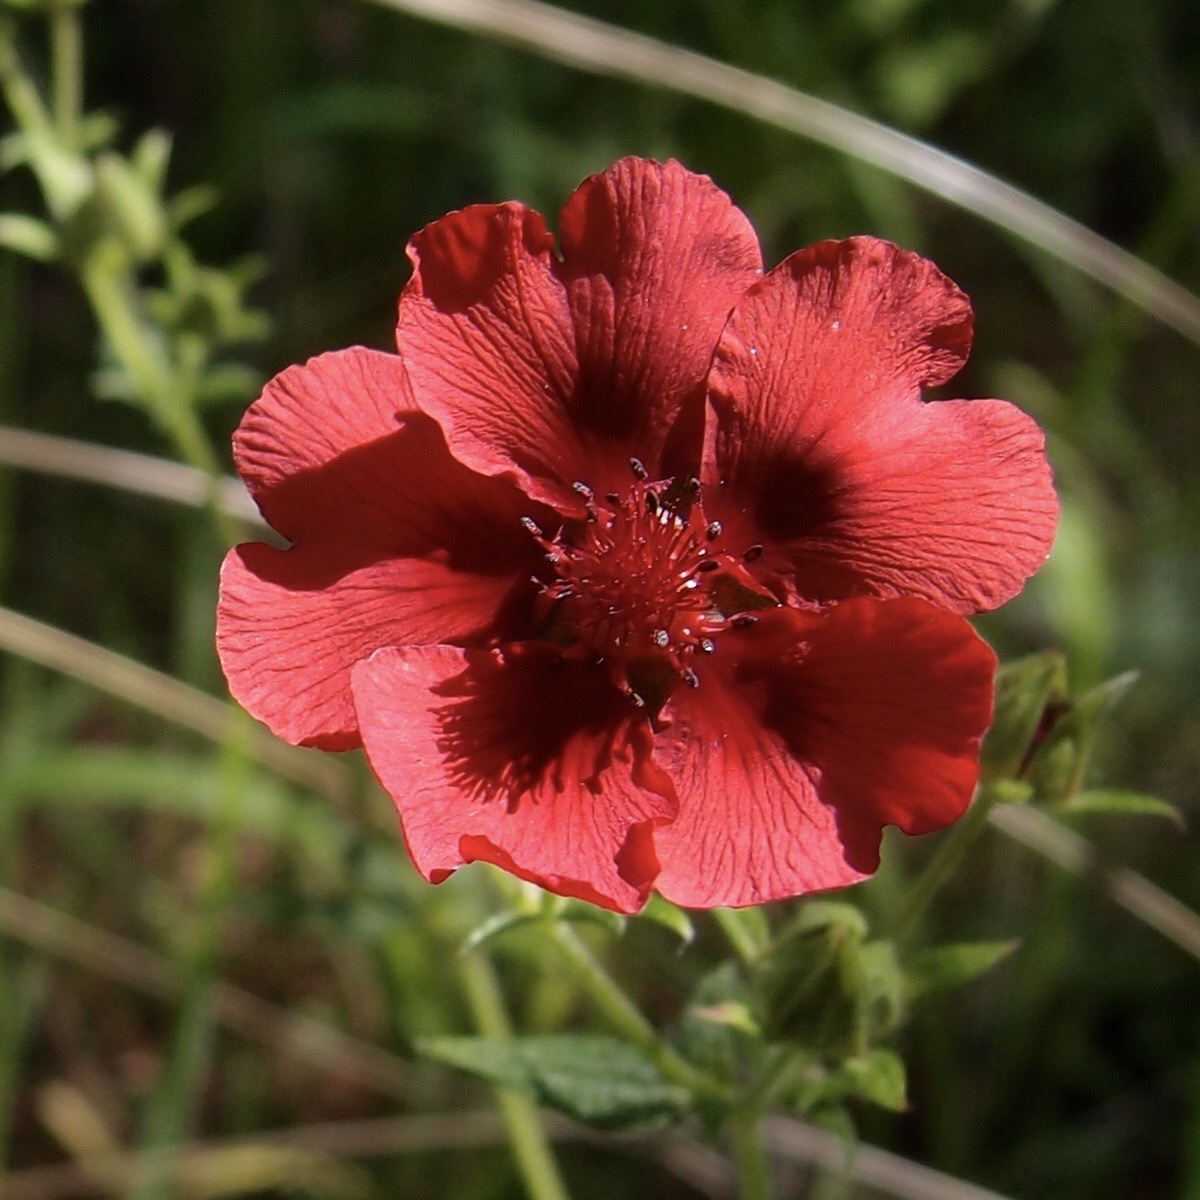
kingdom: Plantae
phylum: Tracheophyta
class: Magnoliopsida
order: Rosales
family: Rosaceae
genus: Potentilla
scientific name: Potentilla thurberi
